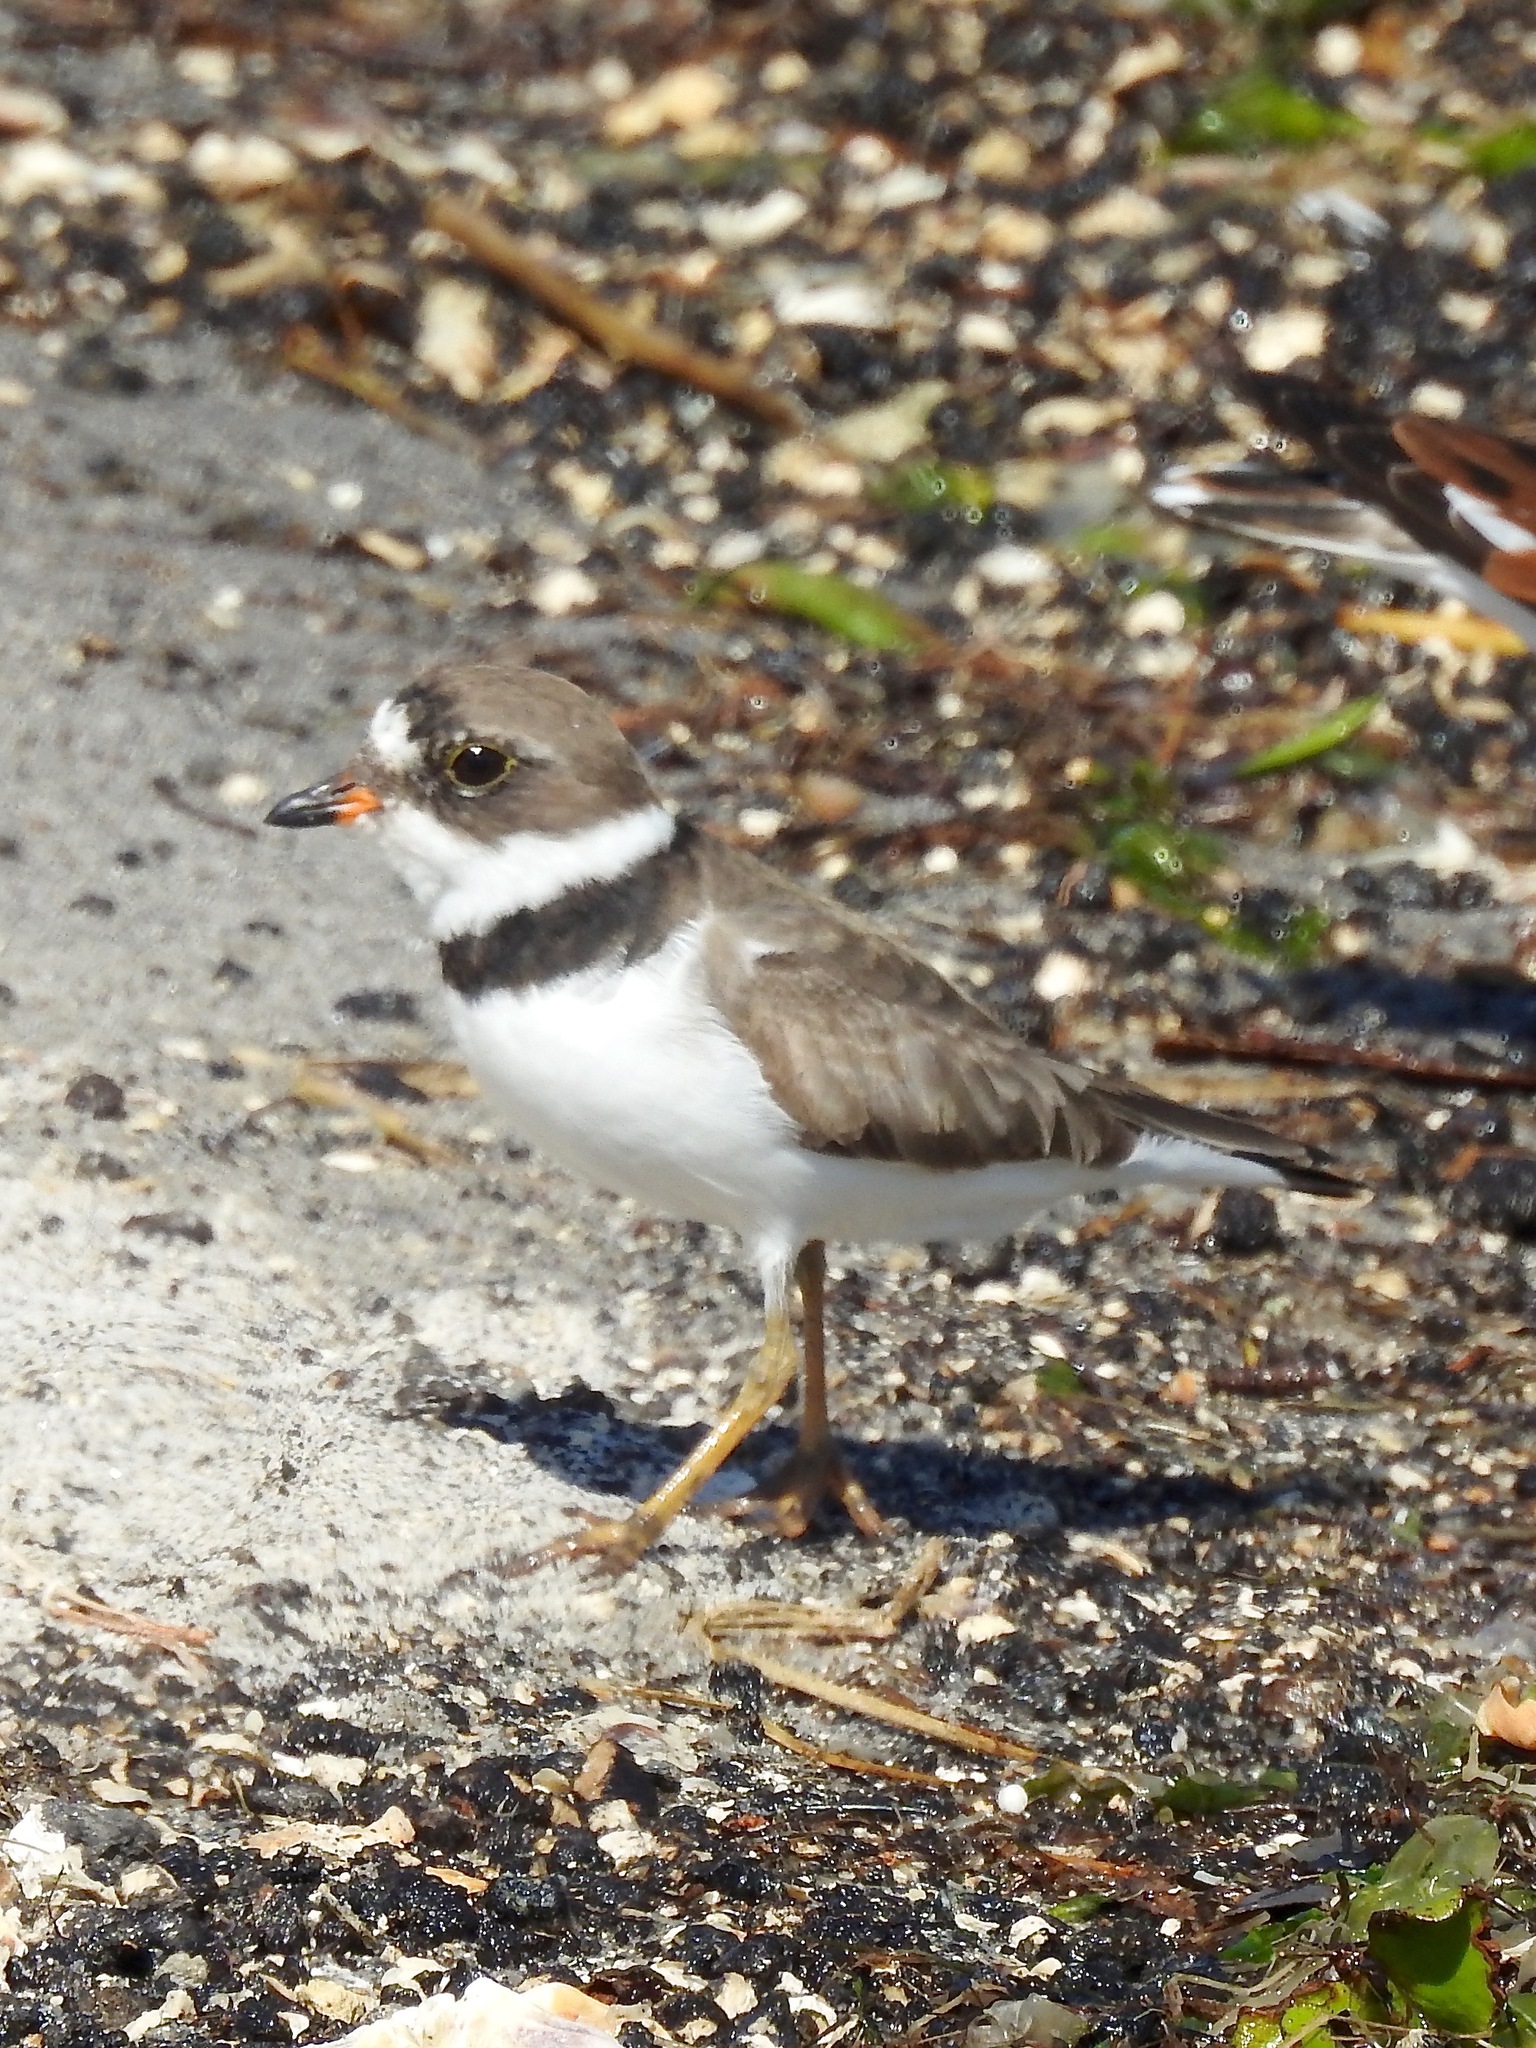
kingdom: Animalia
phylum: Chordata
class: Aves
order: Charadriiformes
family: Charadriidae
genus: Charadrius
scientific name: Charadrius semipalmatus
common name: Semipalmated plover
